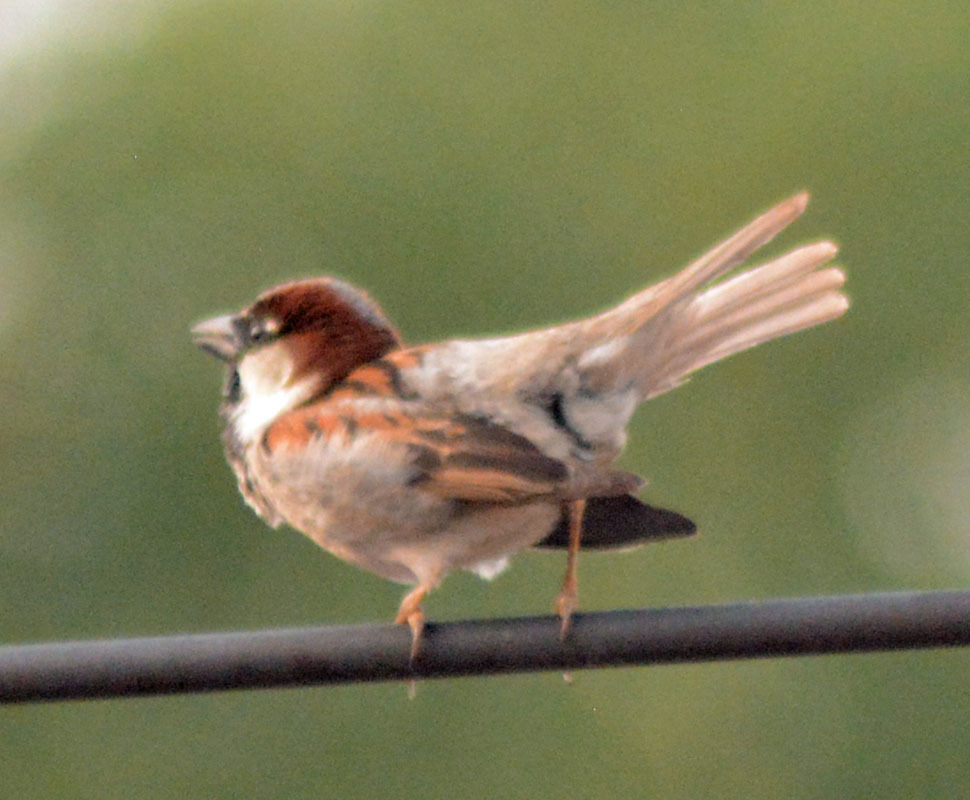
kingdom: Animalia
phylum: Chordata
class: Aves
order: Passeriformes
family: Passeridae
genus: Passer
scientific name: Passer domesticus
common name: House sparrow
